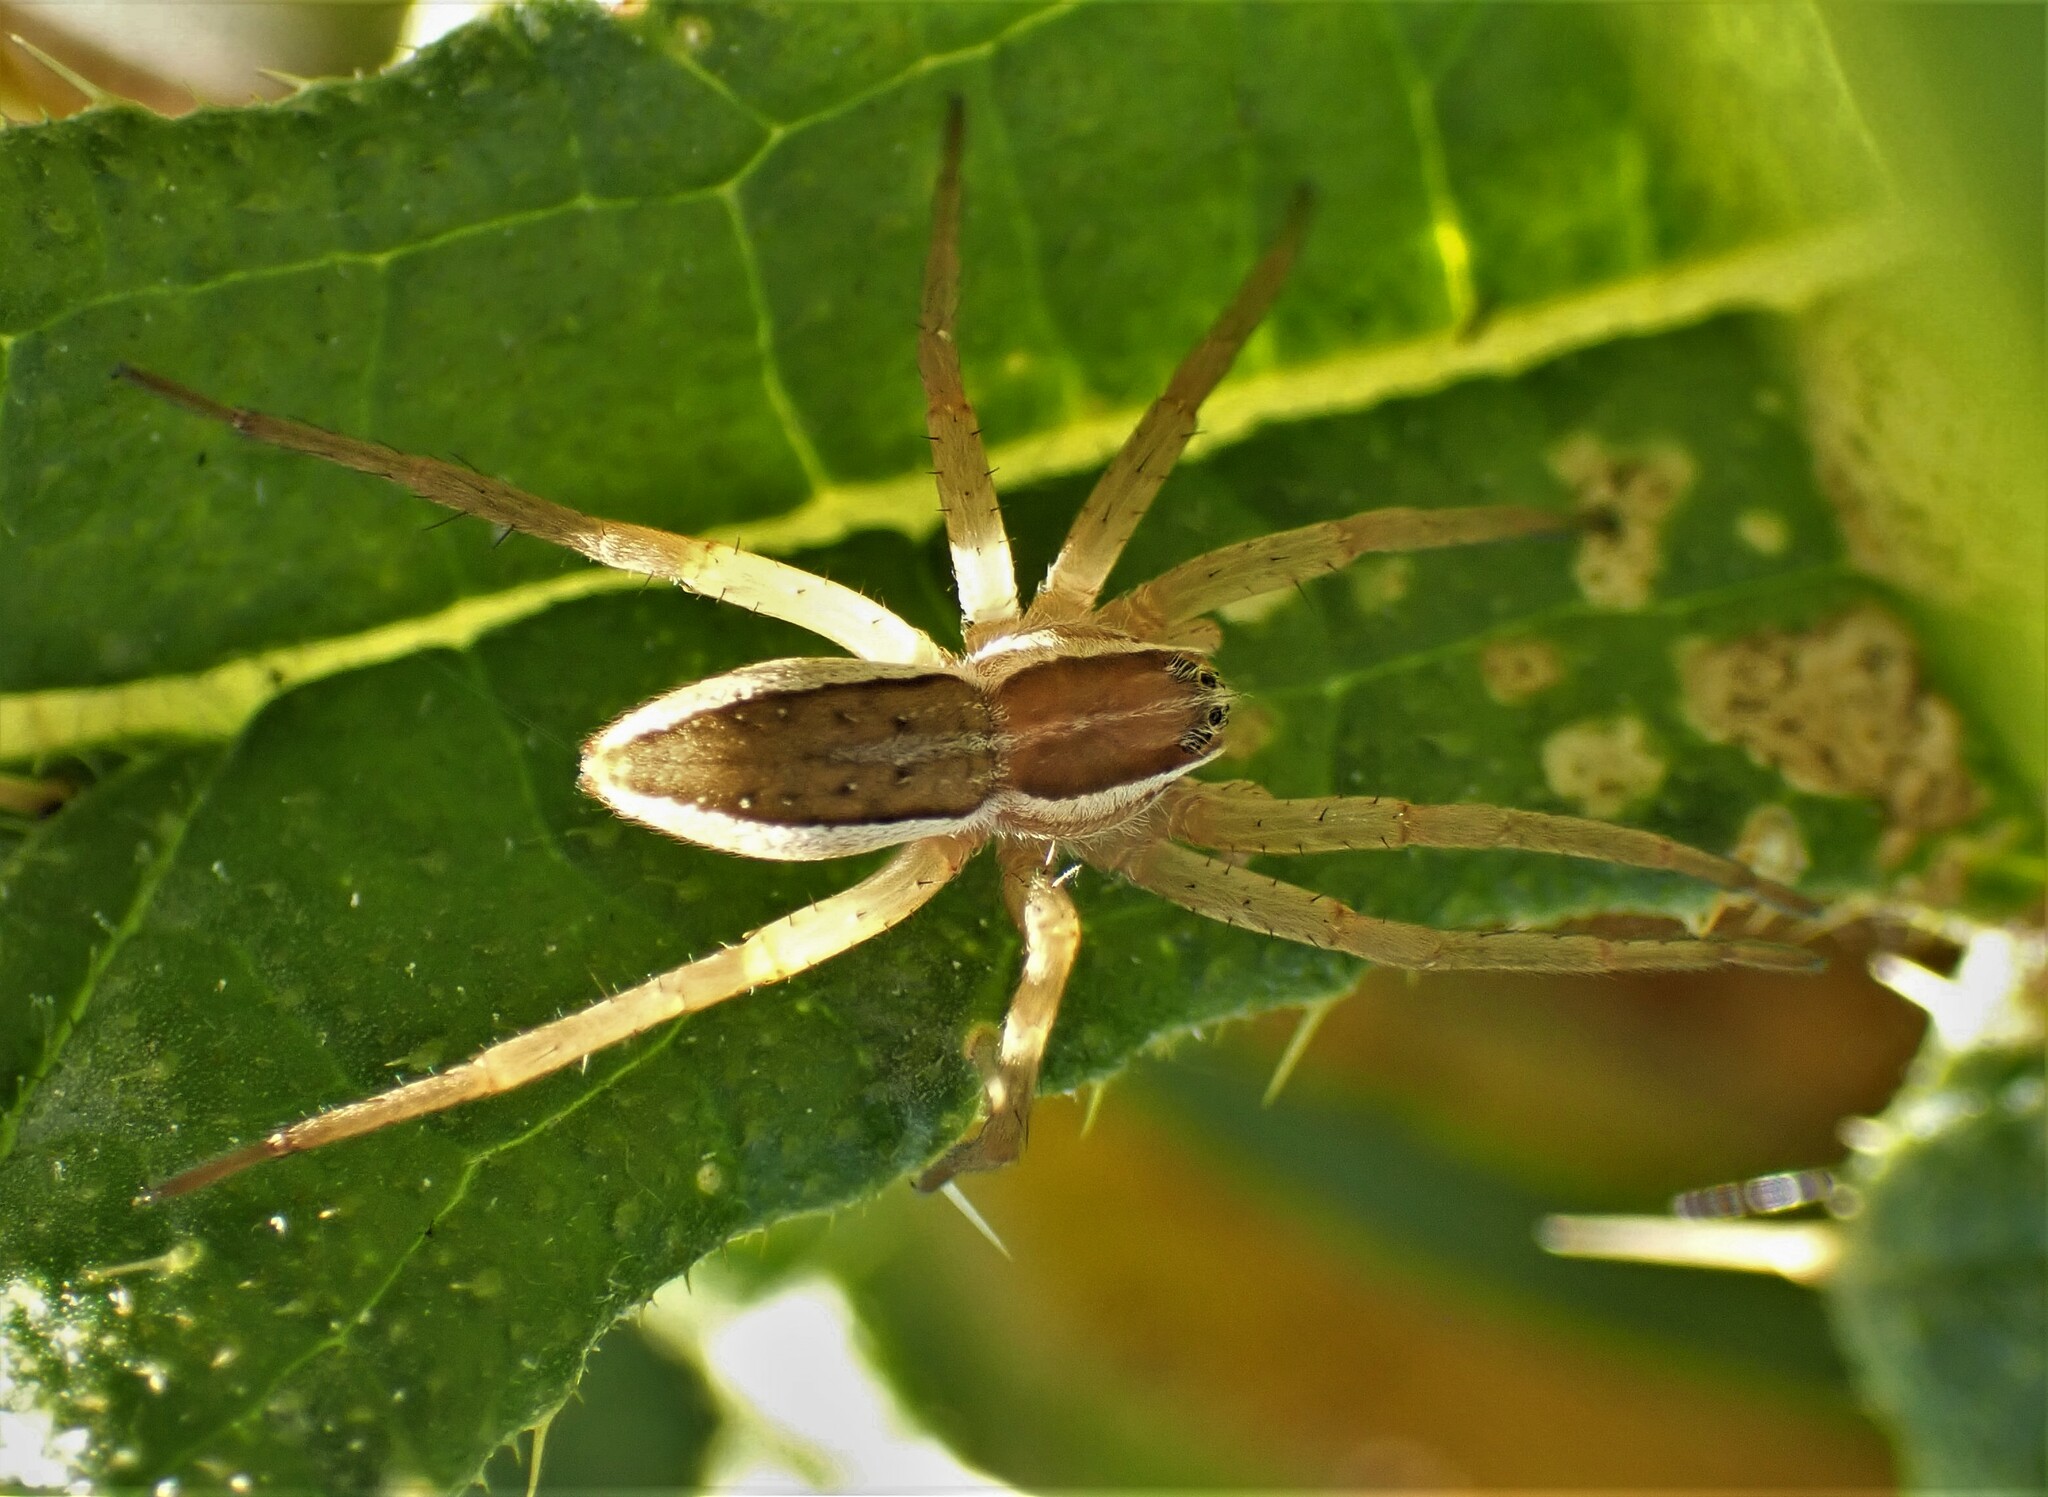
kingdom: Animalia
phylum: Arthropoda
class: Arachnida
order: Araneae
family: Pisauridae
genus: Dolomedes
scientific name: Dolomedes minor
